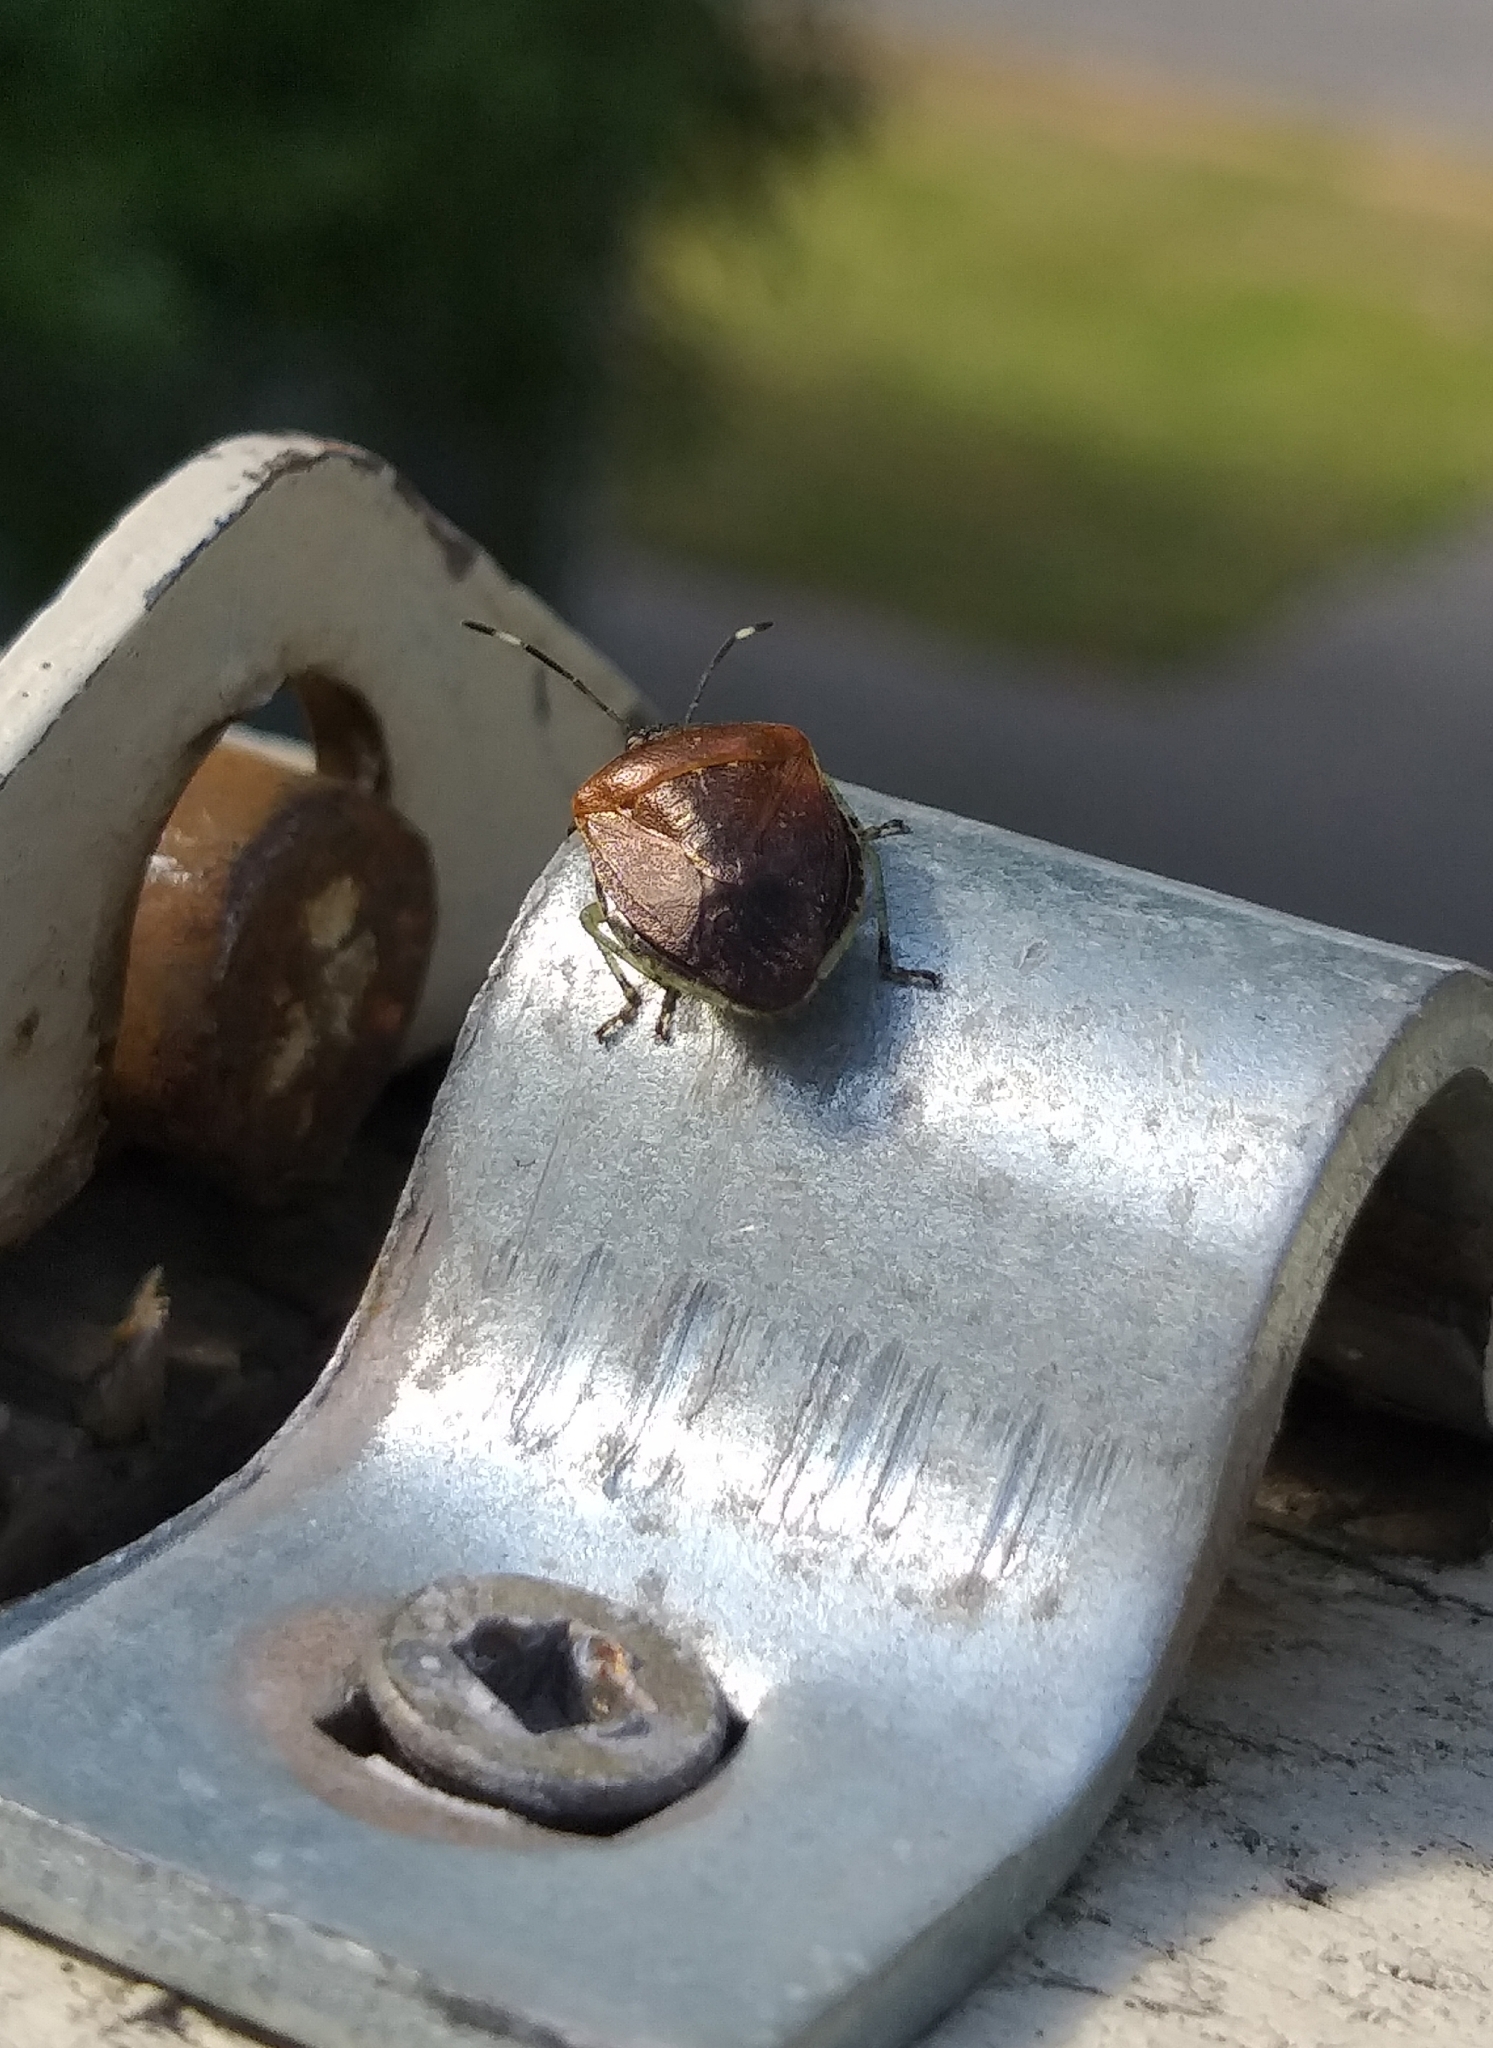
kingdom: Animalia
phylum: Arthropoda
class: Insecta
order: Hemiptera
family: Pentatomidae
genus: Monteithiella
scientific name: Monteithiella
